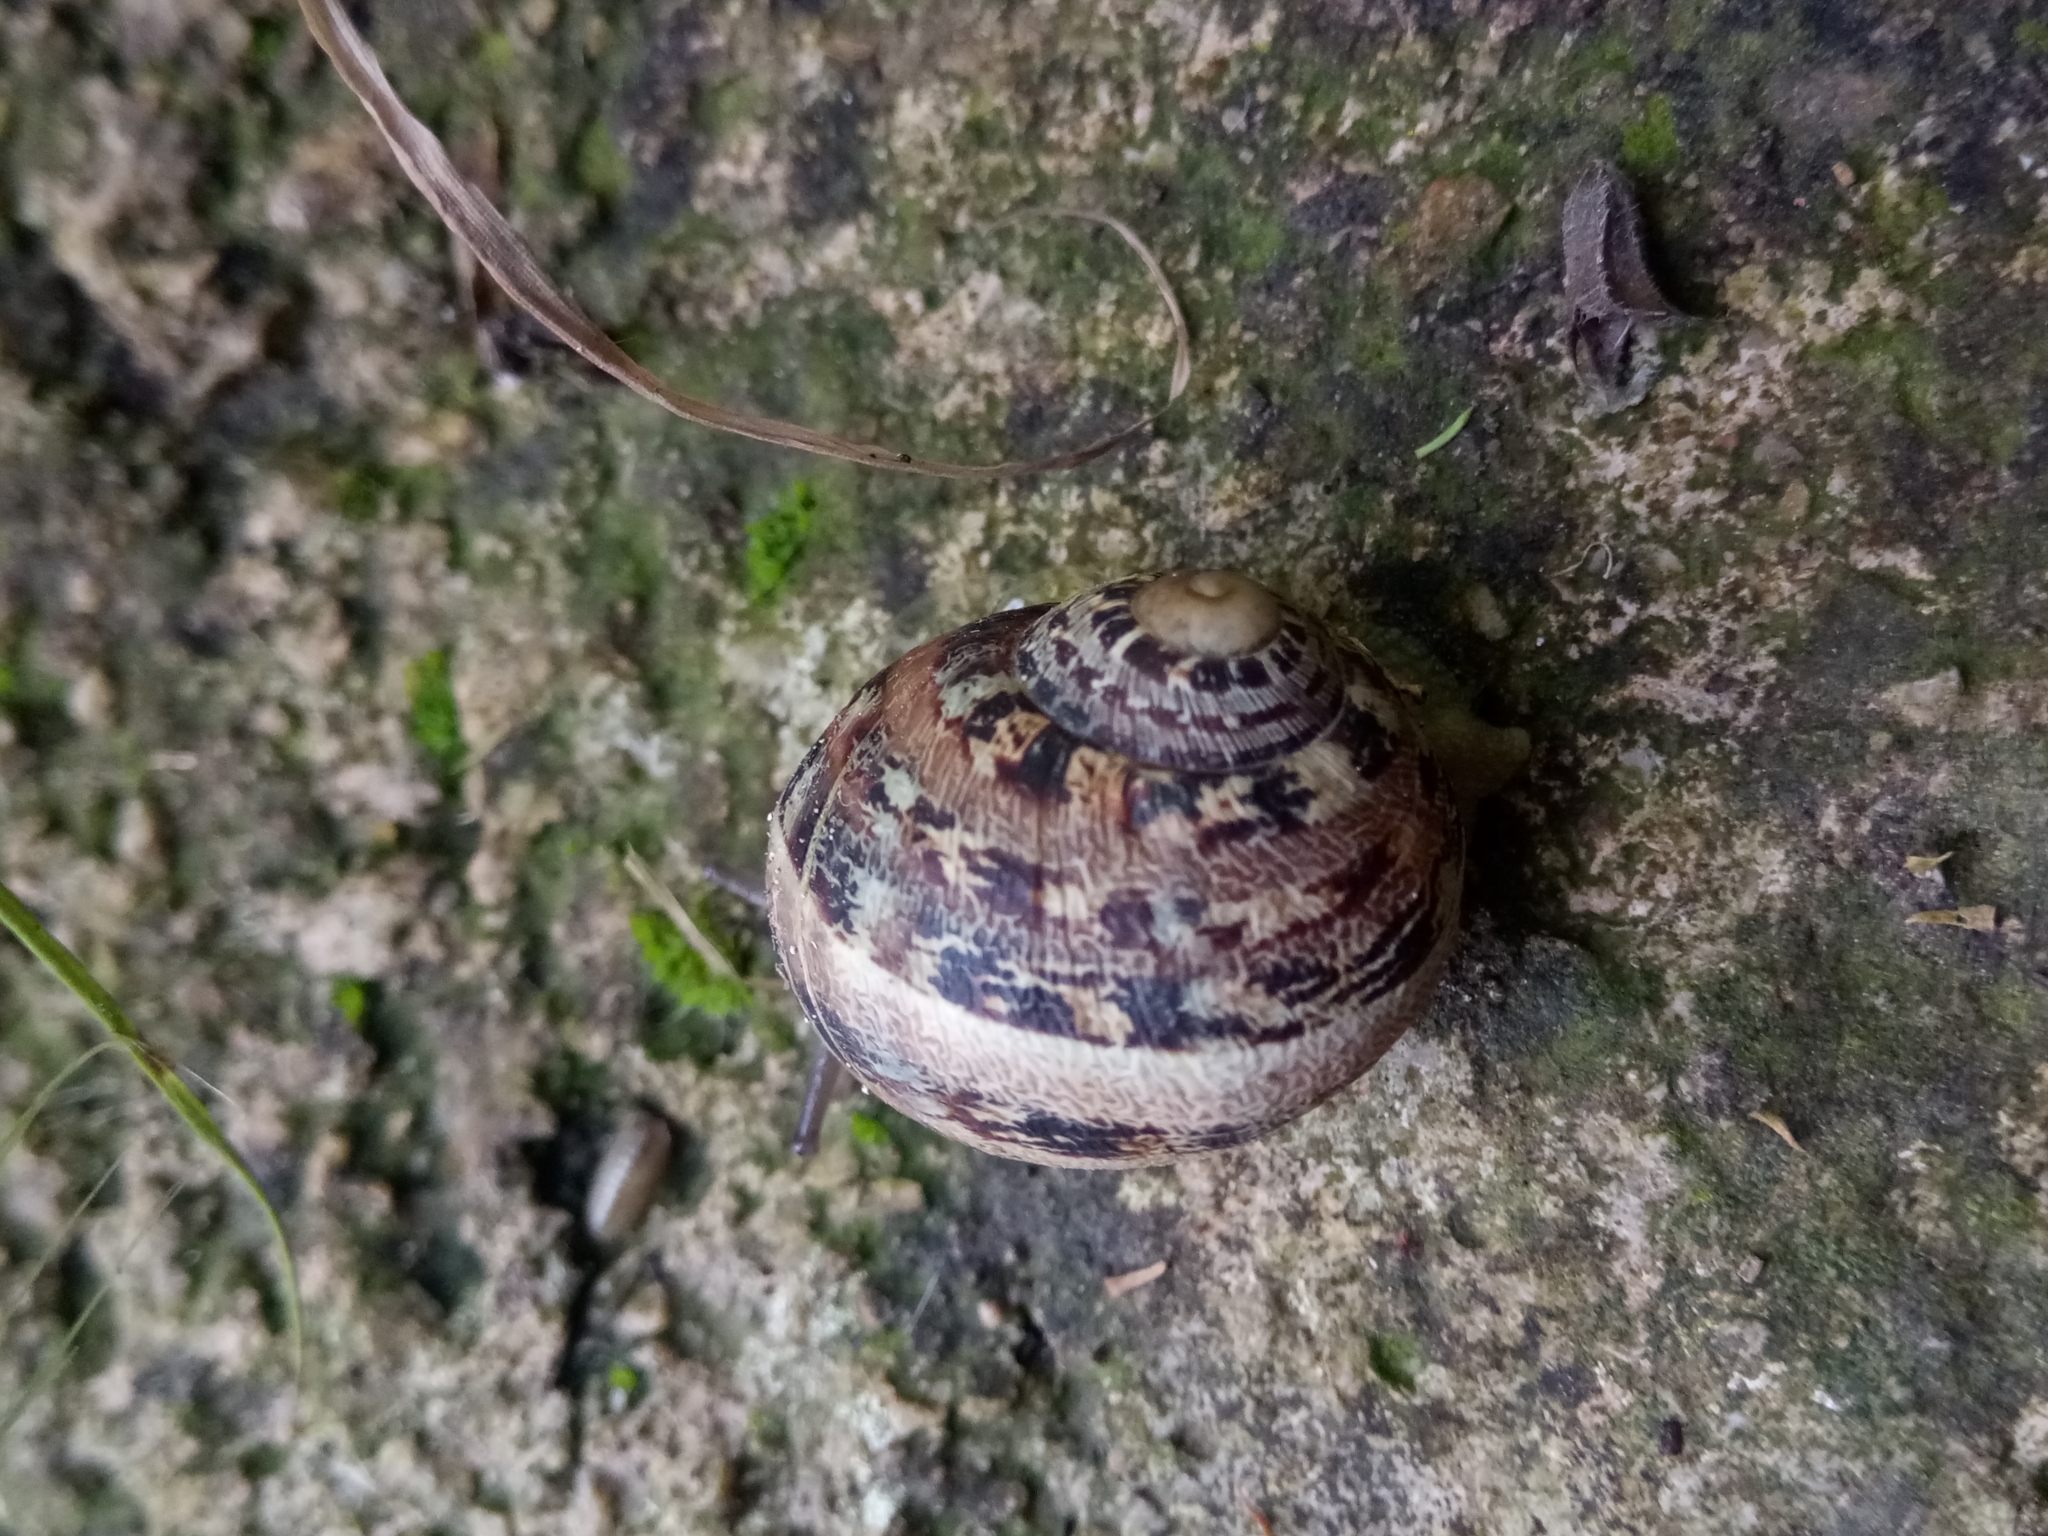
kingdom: Animalia
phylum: Mollusca
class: Gastropoda
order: Stylommatophora
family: Helicidae
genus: Cornu
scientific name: Cornu aspersum
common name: Brown garden snail
